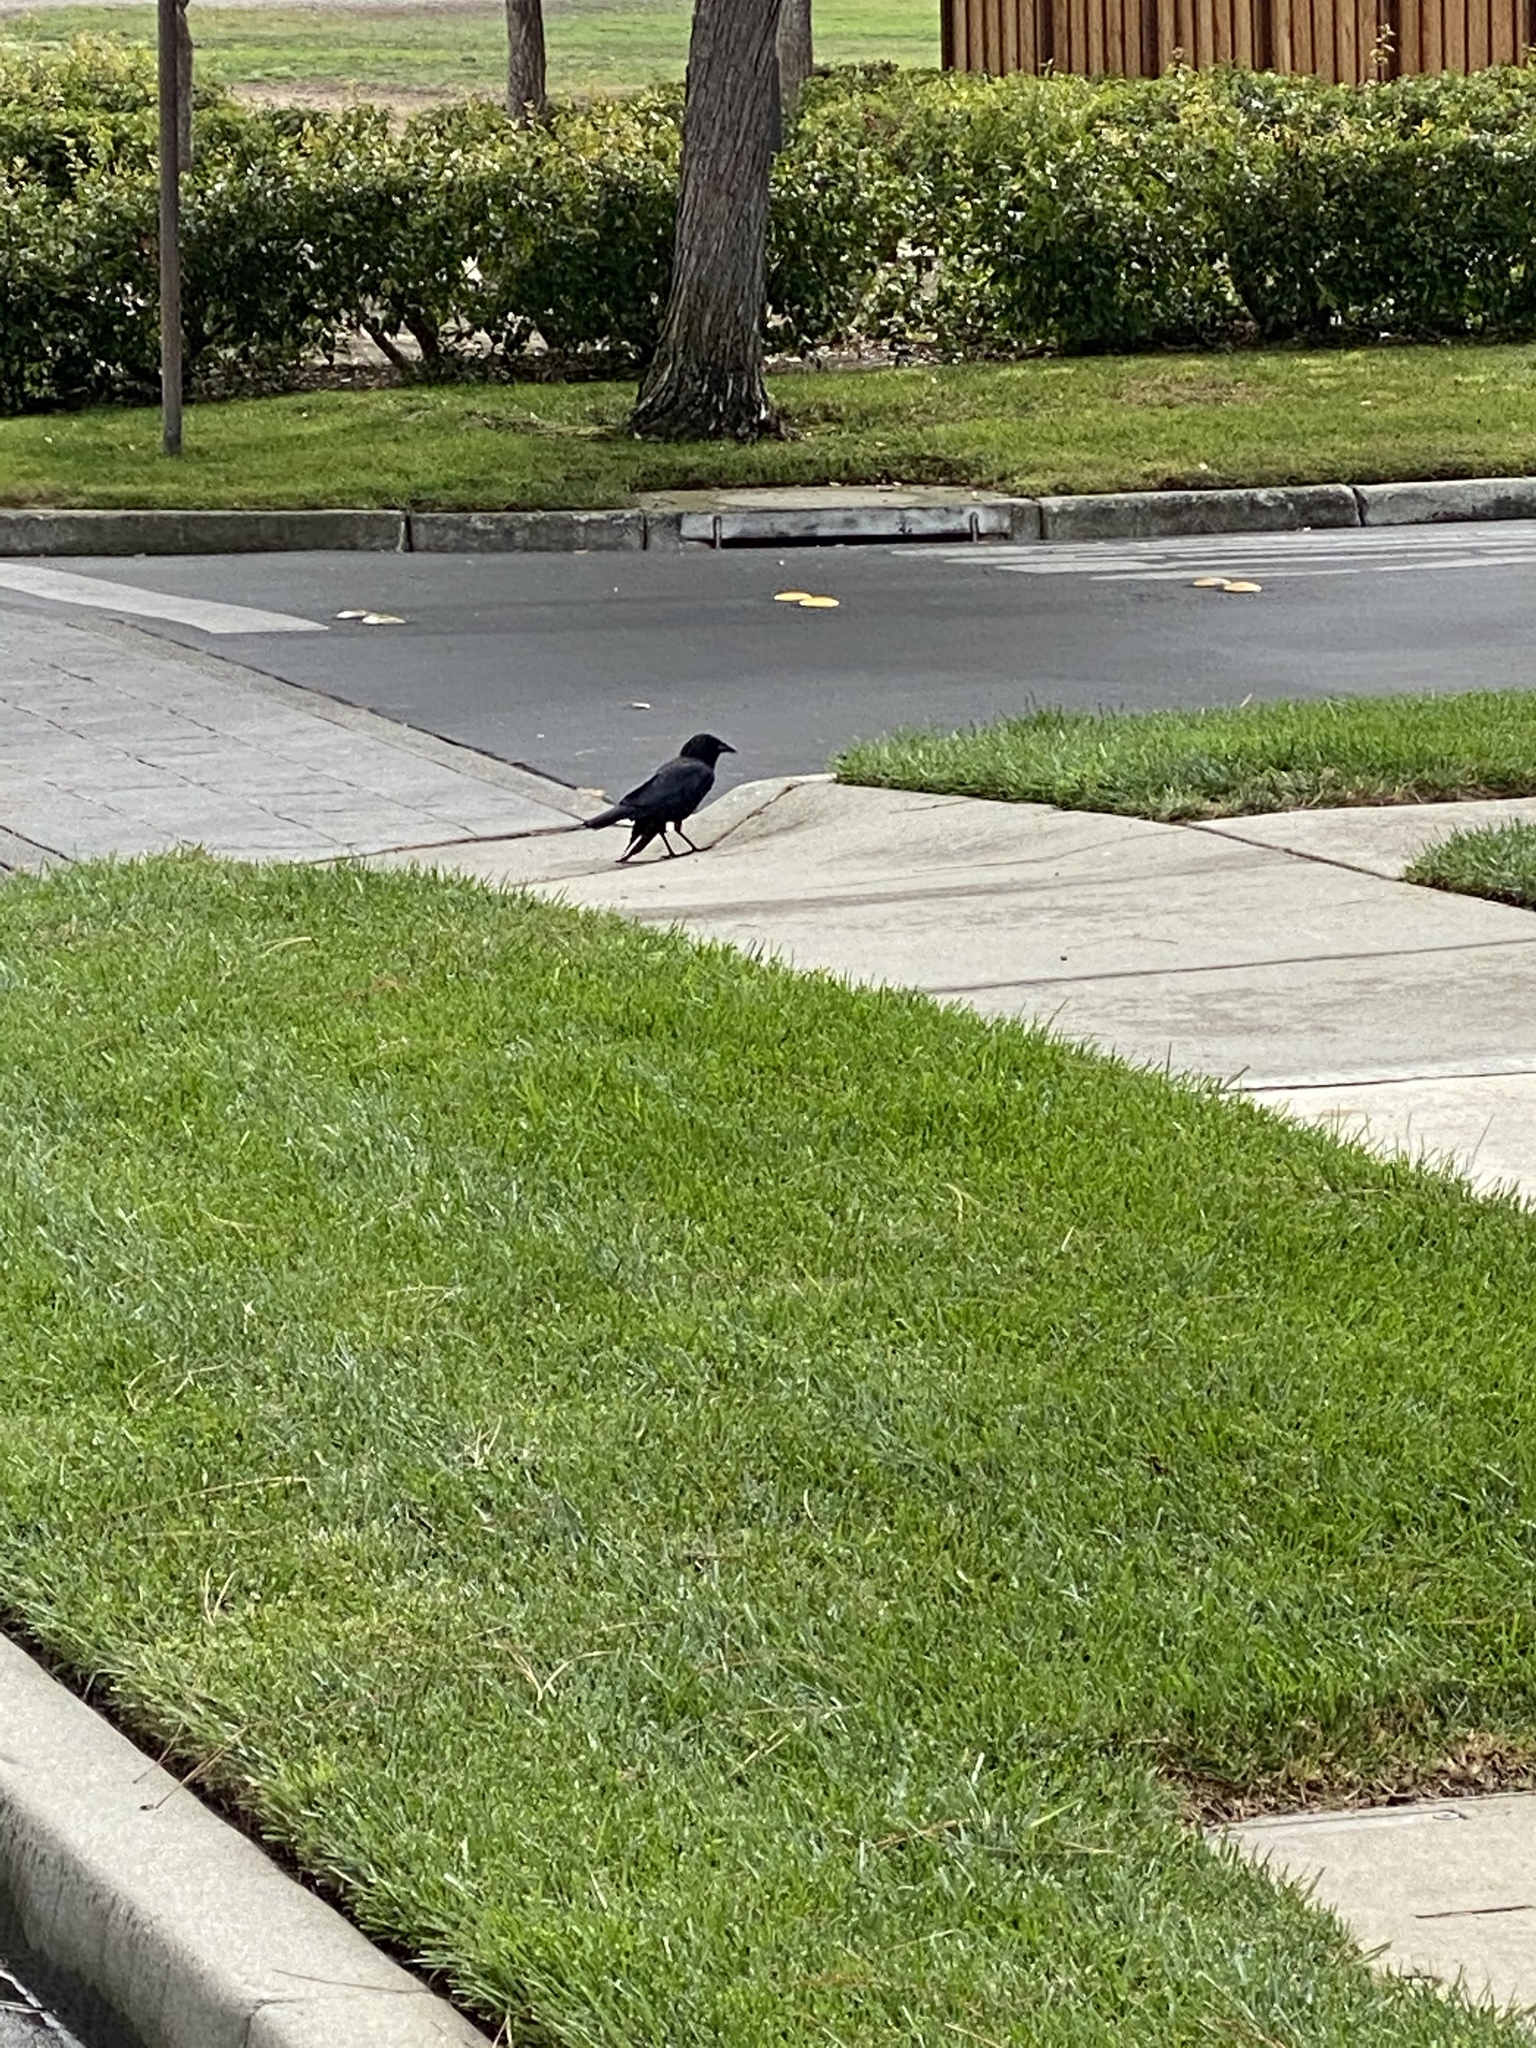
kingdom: Animalia
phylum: Chordata
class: Aves
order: Passeriformes
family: Corvidae
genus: Corvus
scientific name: Corvus brachyrhynchos
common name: American crow
